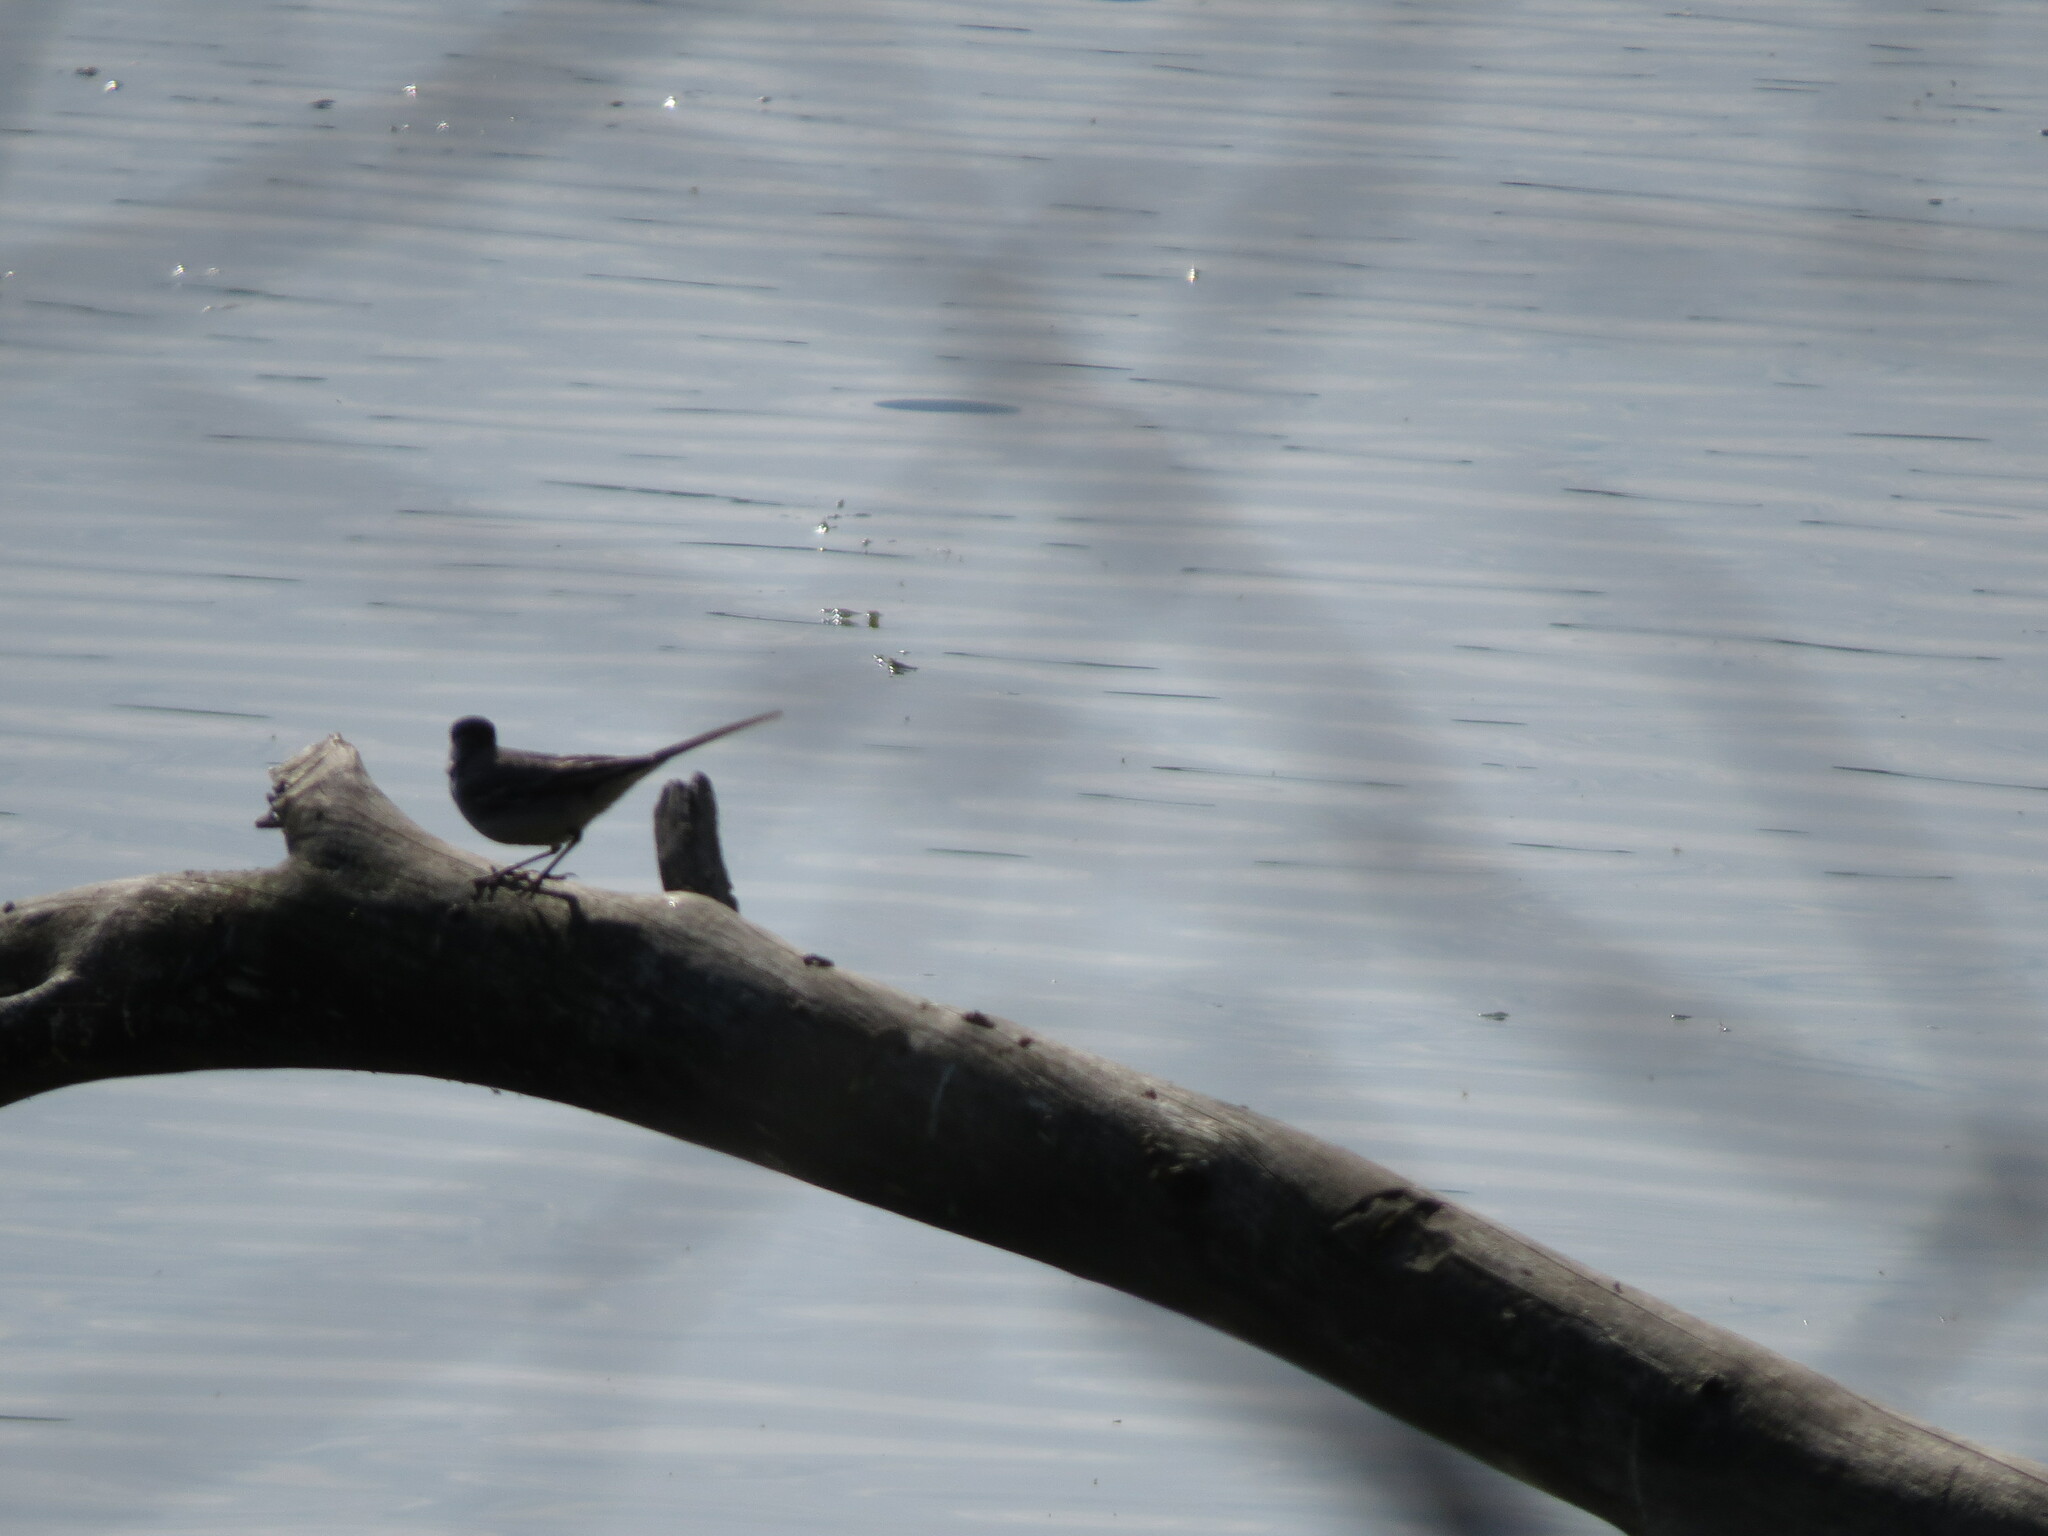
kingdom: Animalia
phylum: Chordata
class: Aves
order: Passeriformes
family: Motacillidae
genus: Motacilla
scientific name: Motacilla alba
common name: White wagtail
